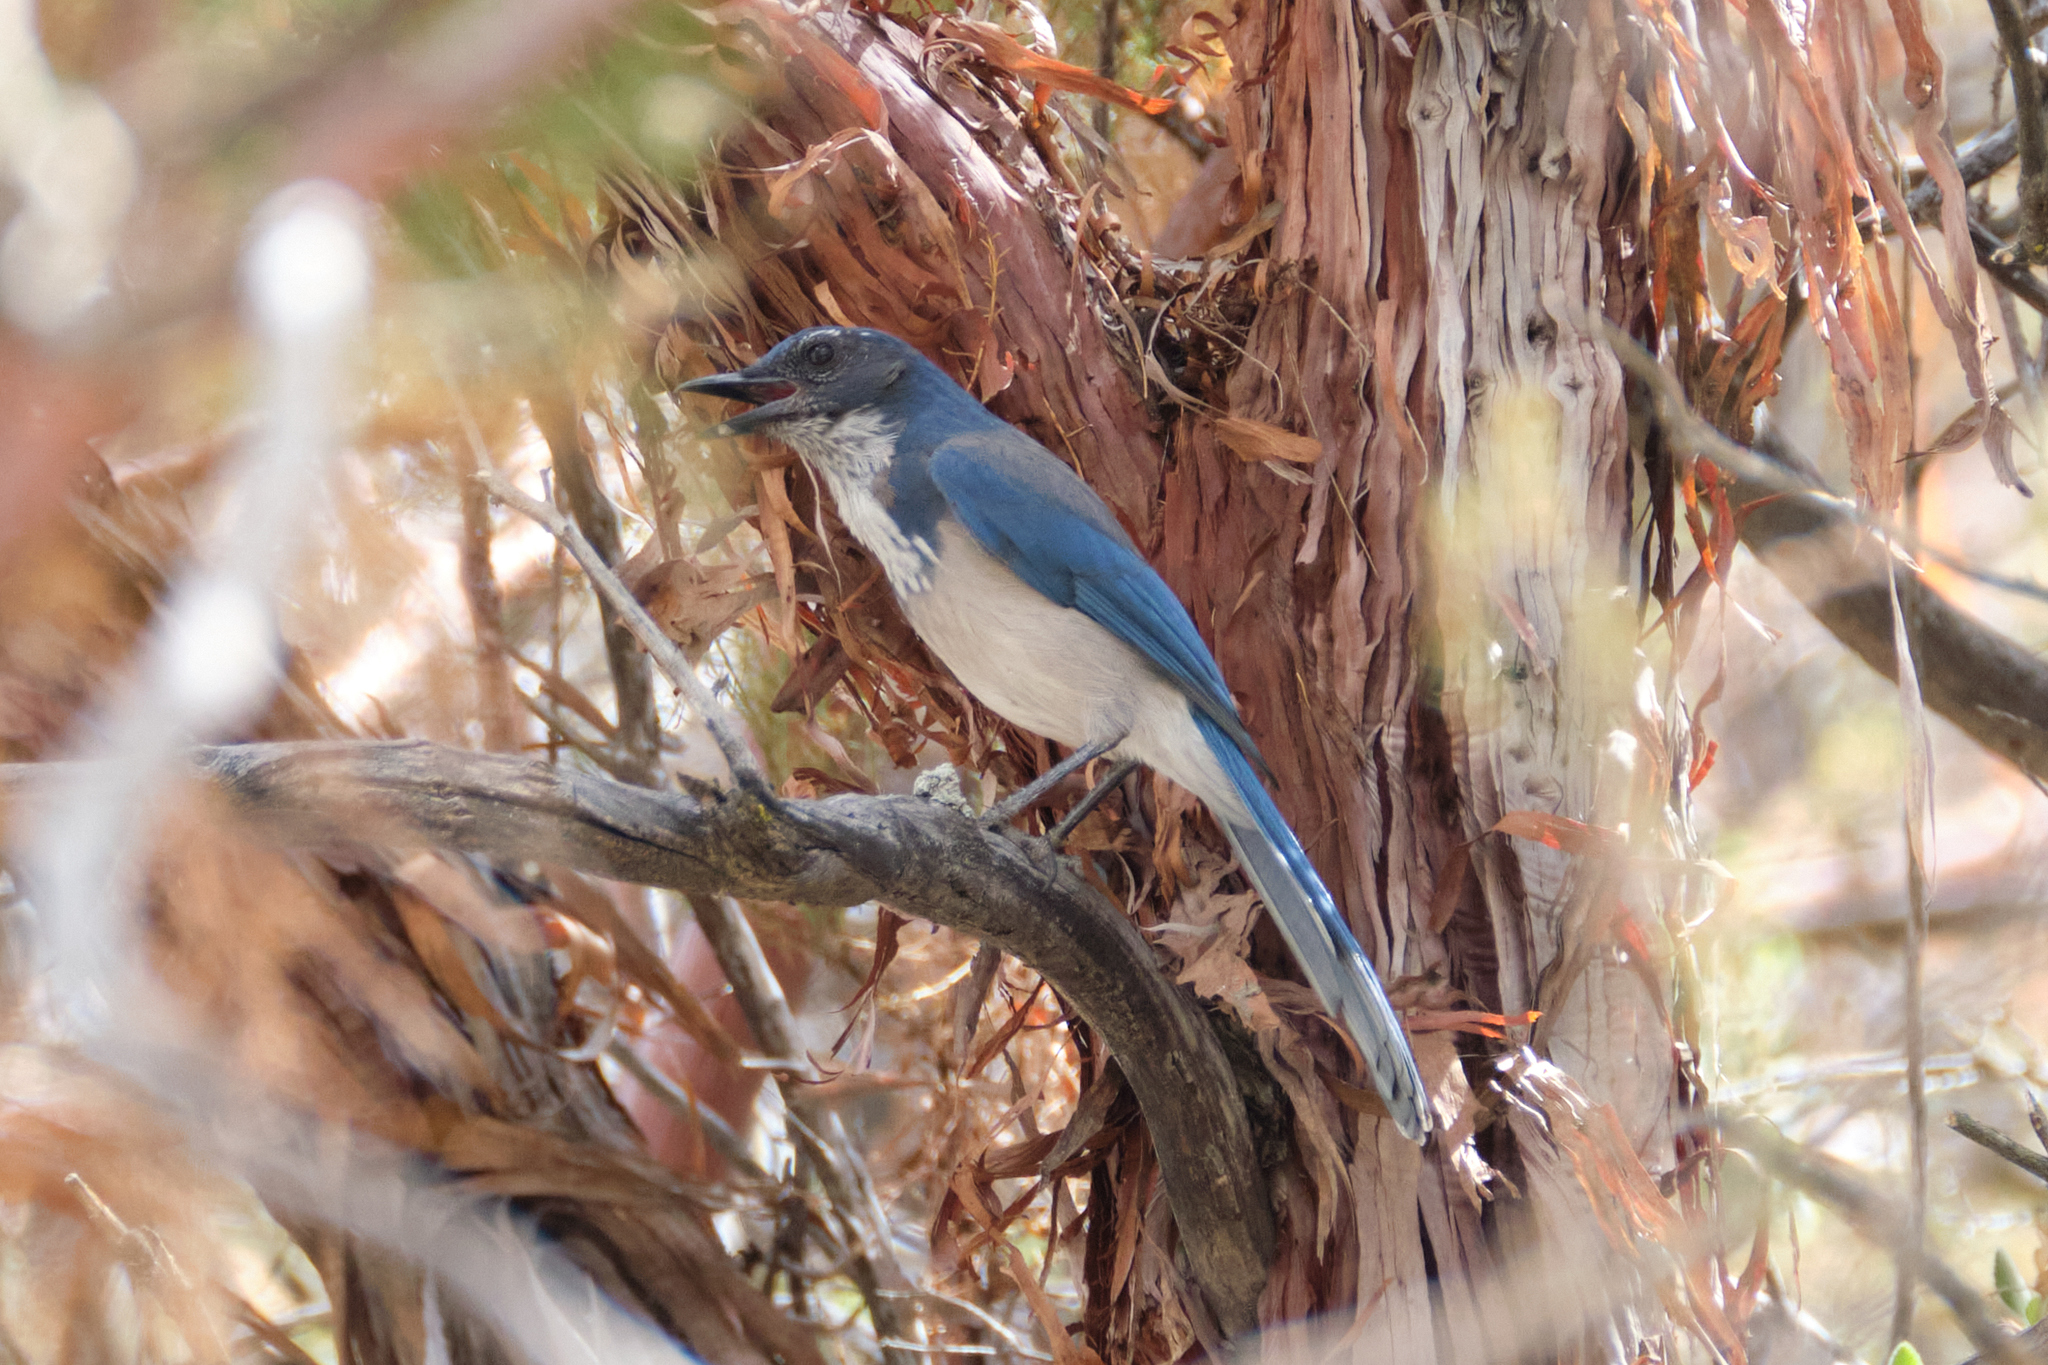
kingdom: Animalia
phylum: Chordata
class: Aves
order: Passeriformes
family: Corvidae
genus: Aphelocoma
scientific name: Aphelocoma californica
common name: California scrub-jay
